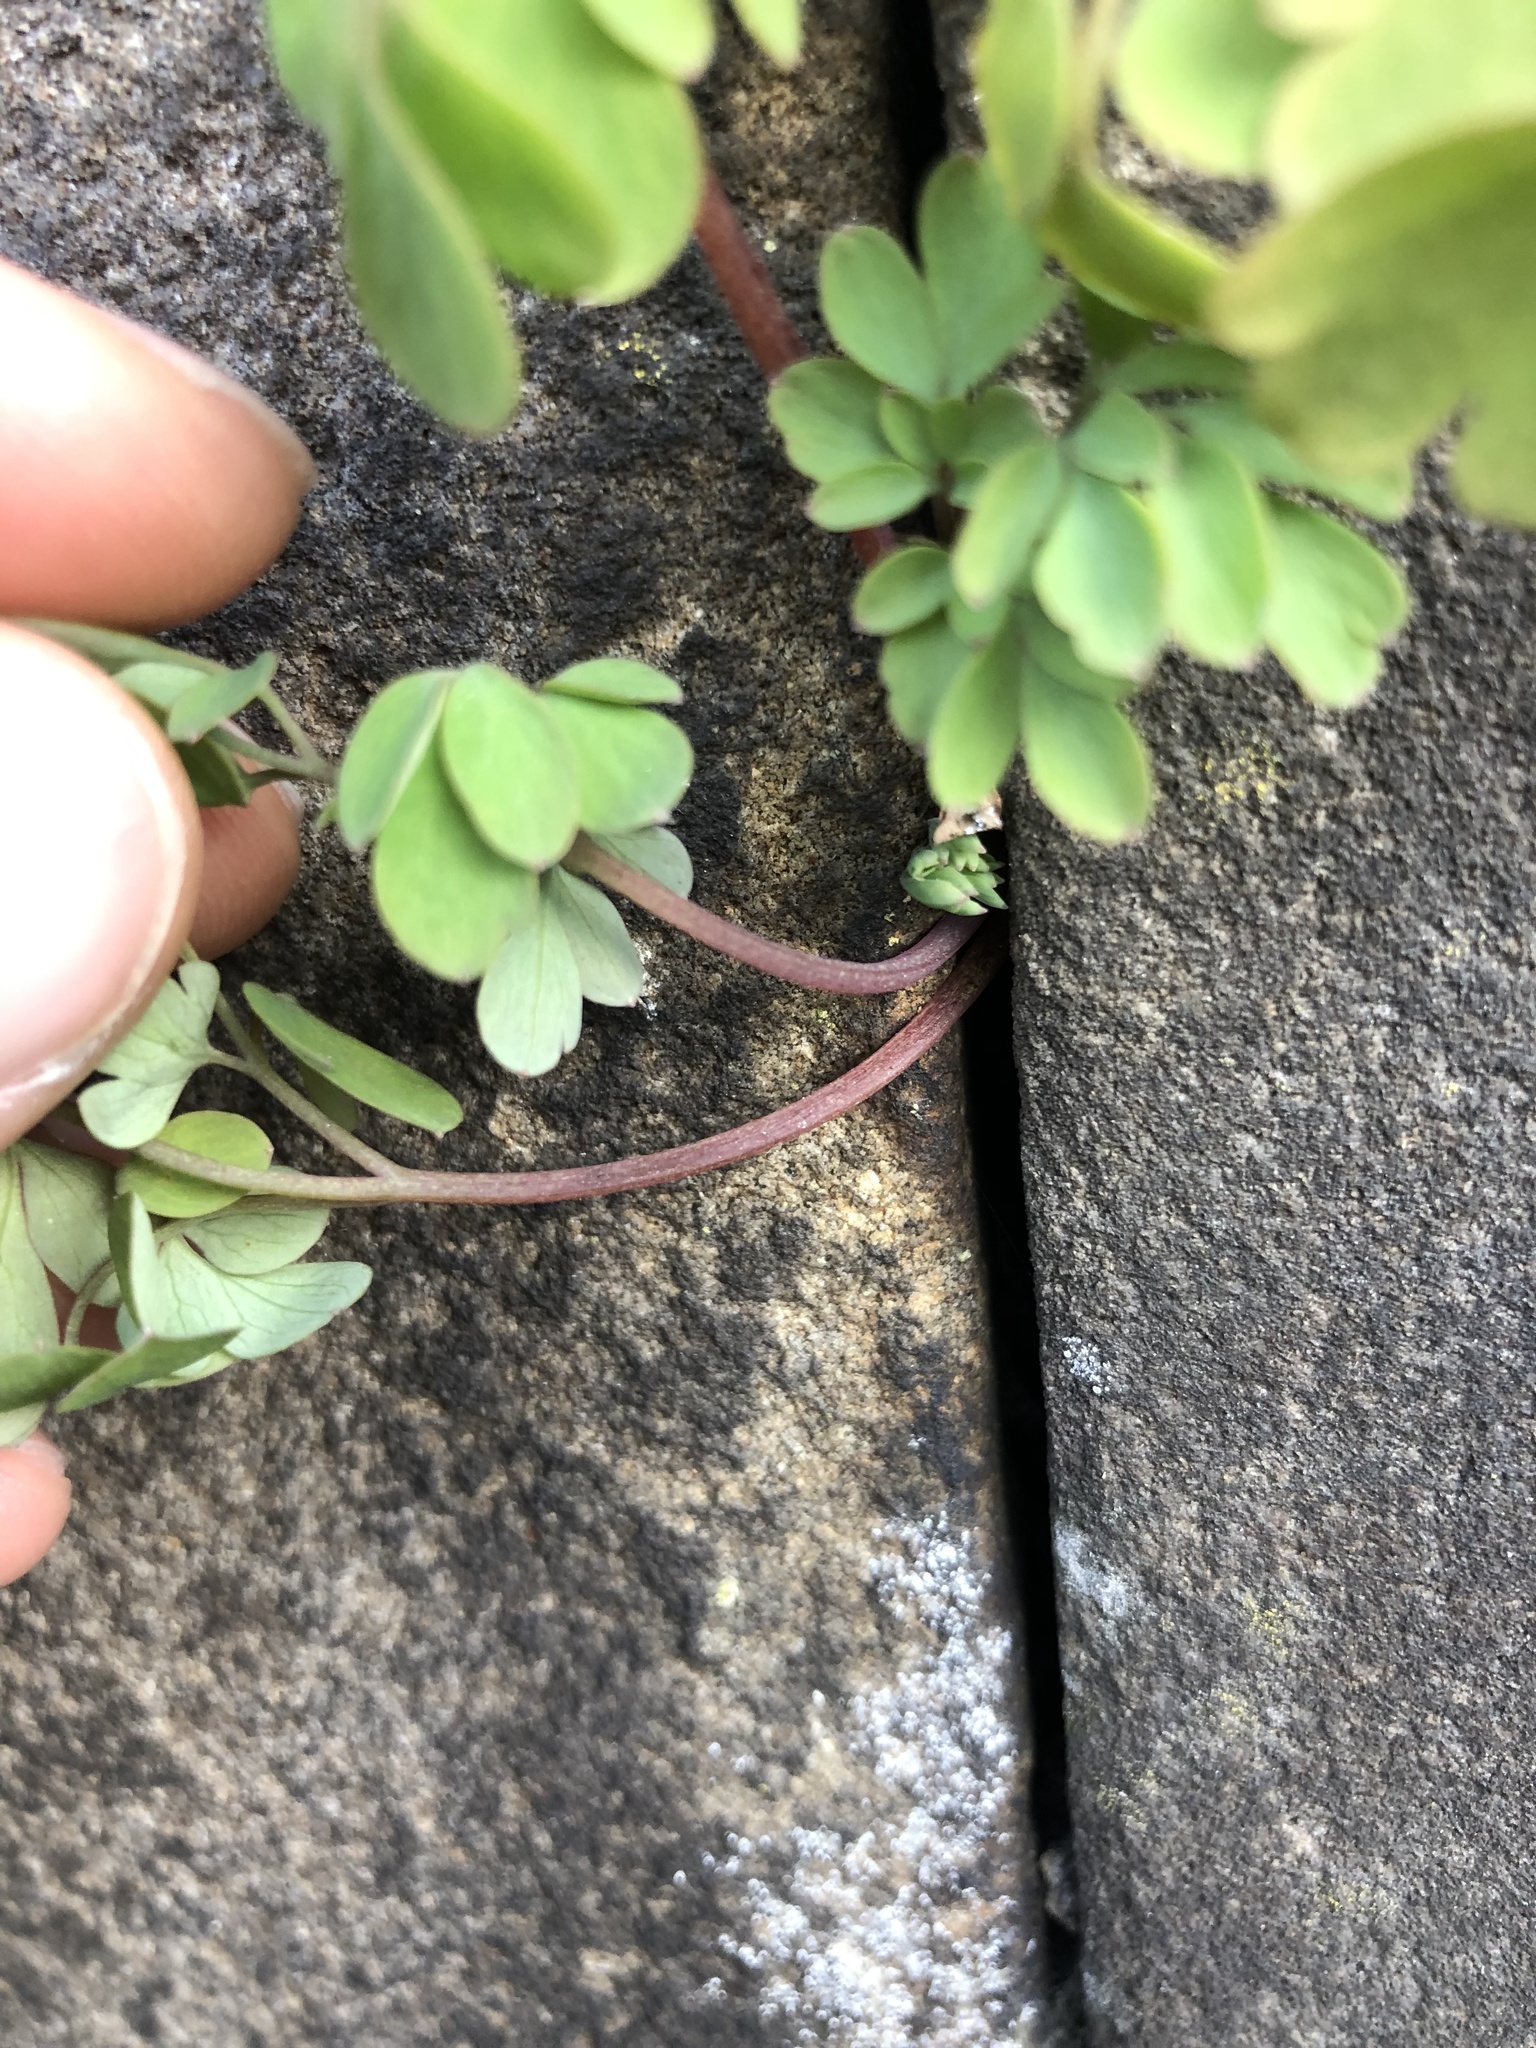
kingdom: Plantae
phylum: Tracheophyta
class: Magnoliopsida
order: Ranunculales
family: Papaveraceae
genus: Pseudofumaria
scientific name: Pseudofumaria lutea
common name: Yellow corydalis
